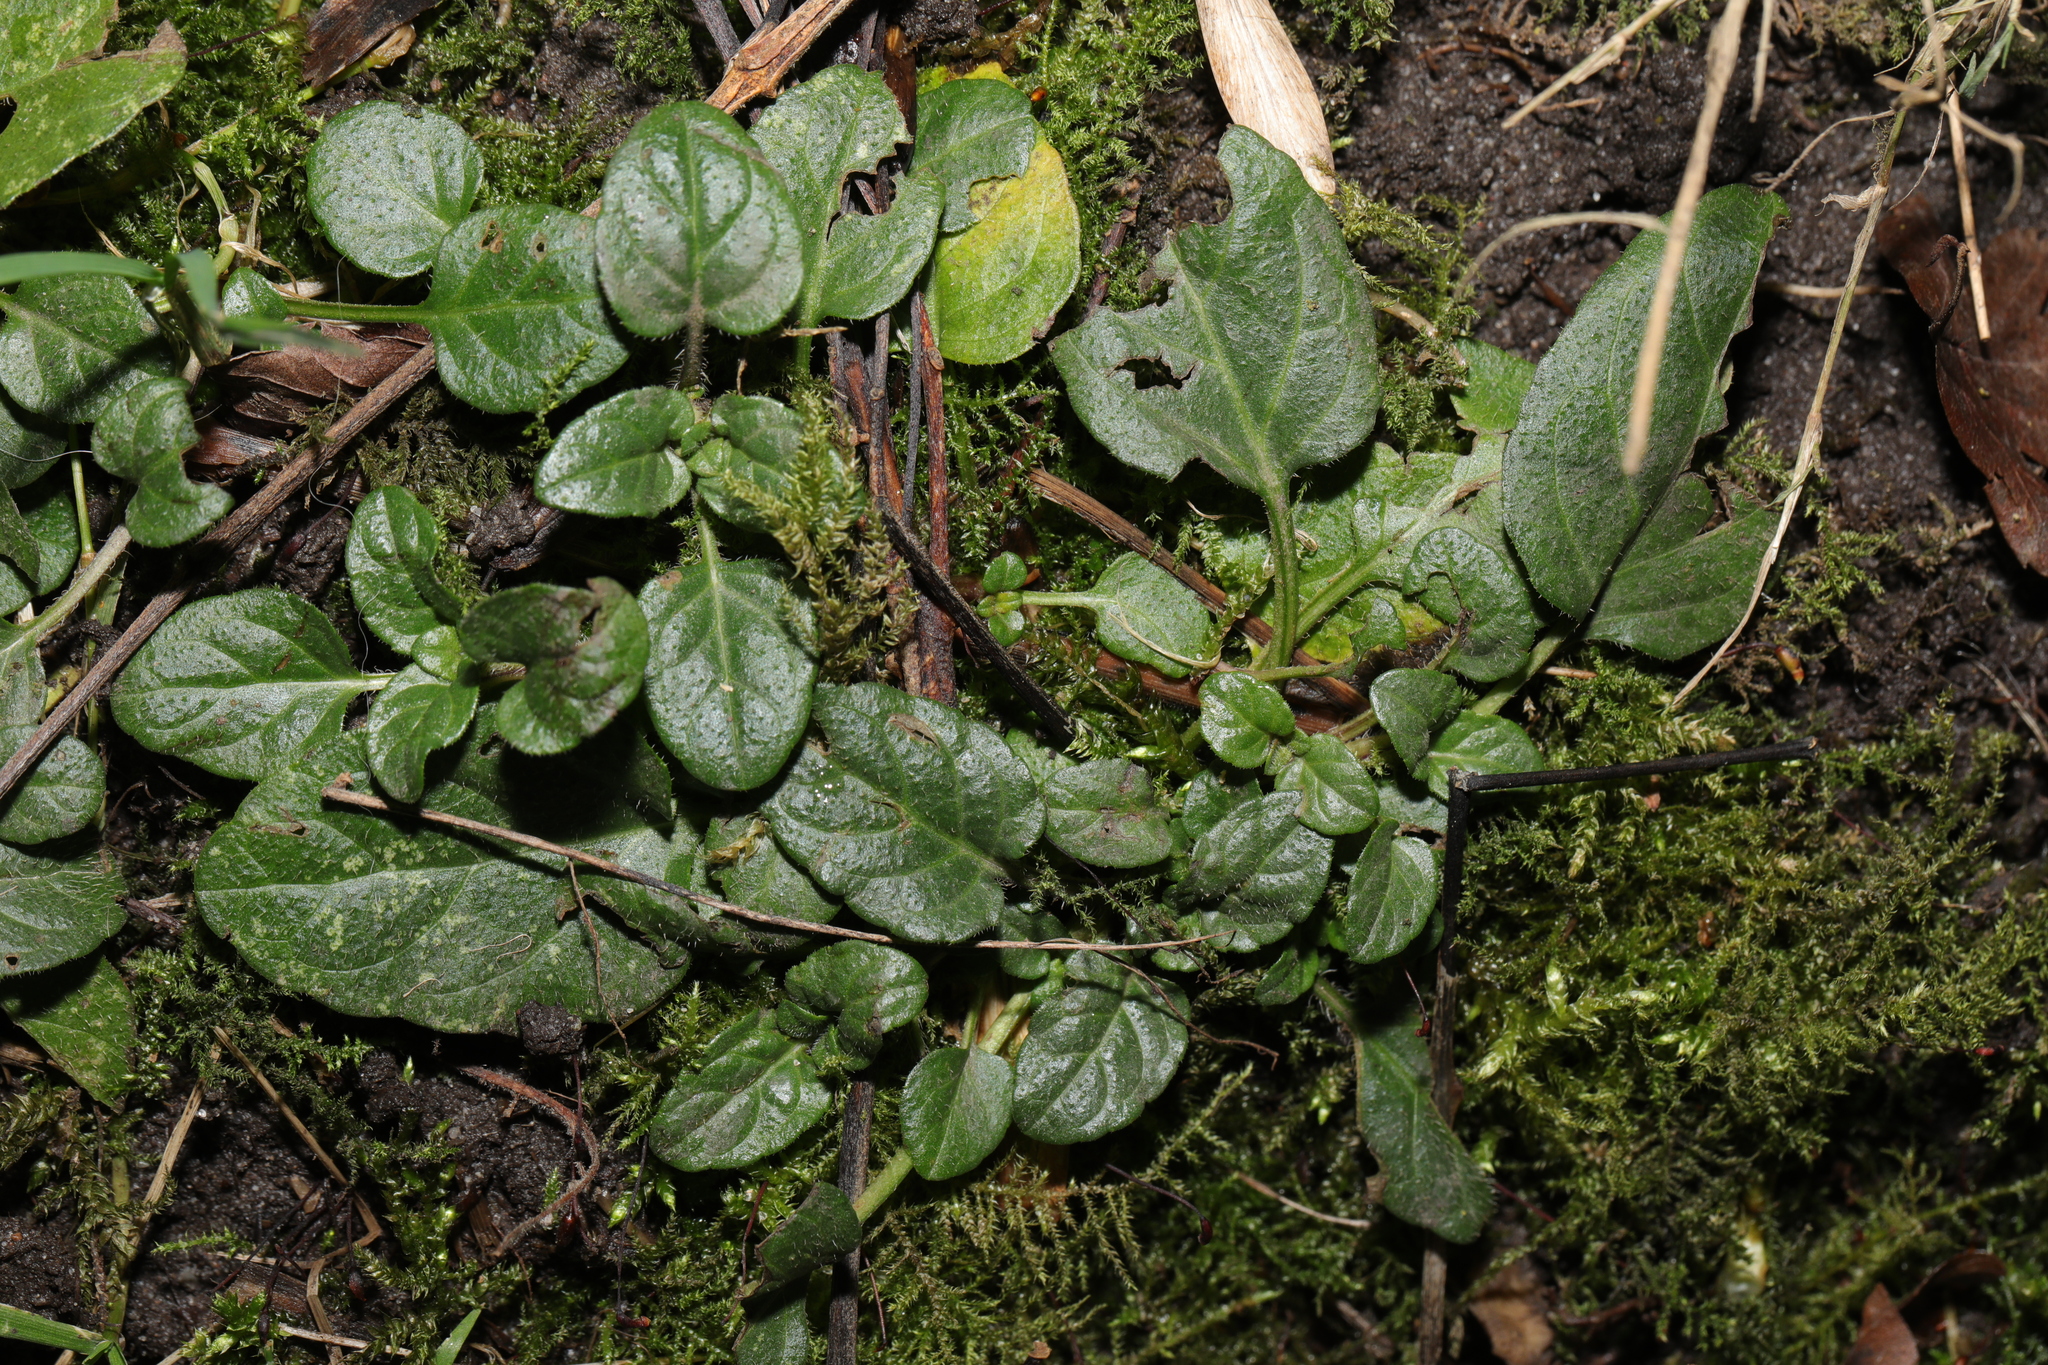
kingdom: Plantae
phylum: Tracheophyta
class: Magnoliopsida
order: Lamiales
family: Lamiaceae
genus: Prunella
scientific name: Prunella vulgaris
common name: Heal-all
